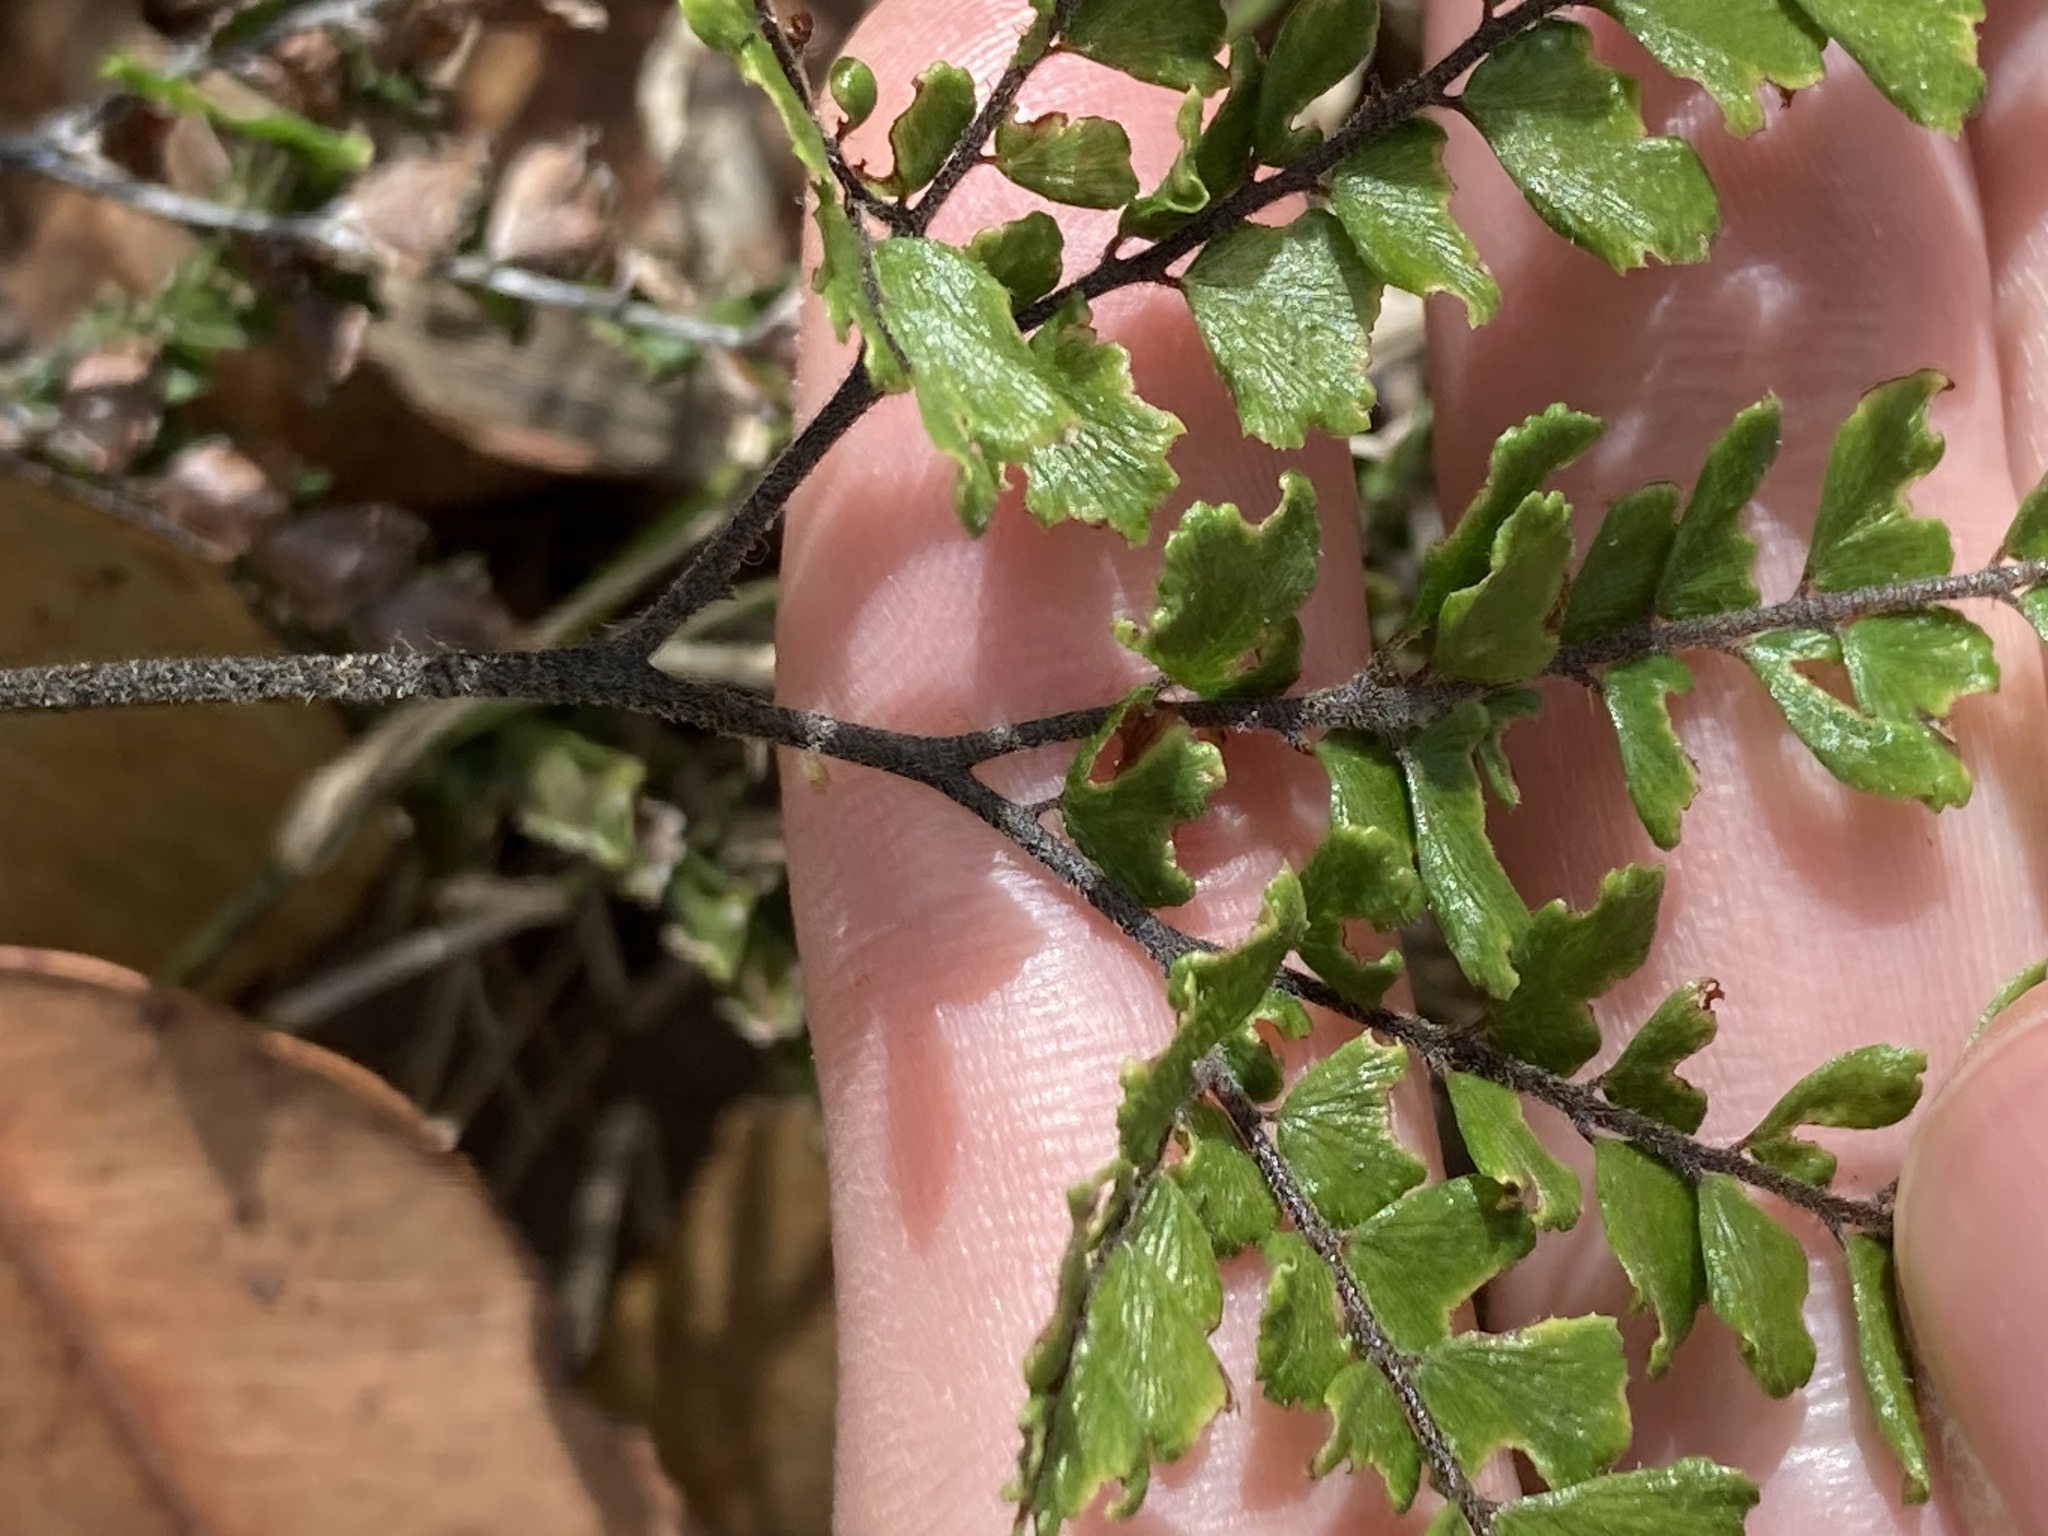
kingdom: Plantae
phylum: Tracheophyta
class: Polypodiopsida
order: Polypodiales
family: Pteridaceae
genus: Adiantum
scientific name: Adiantum hispidulum
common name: Rough maidenhair
